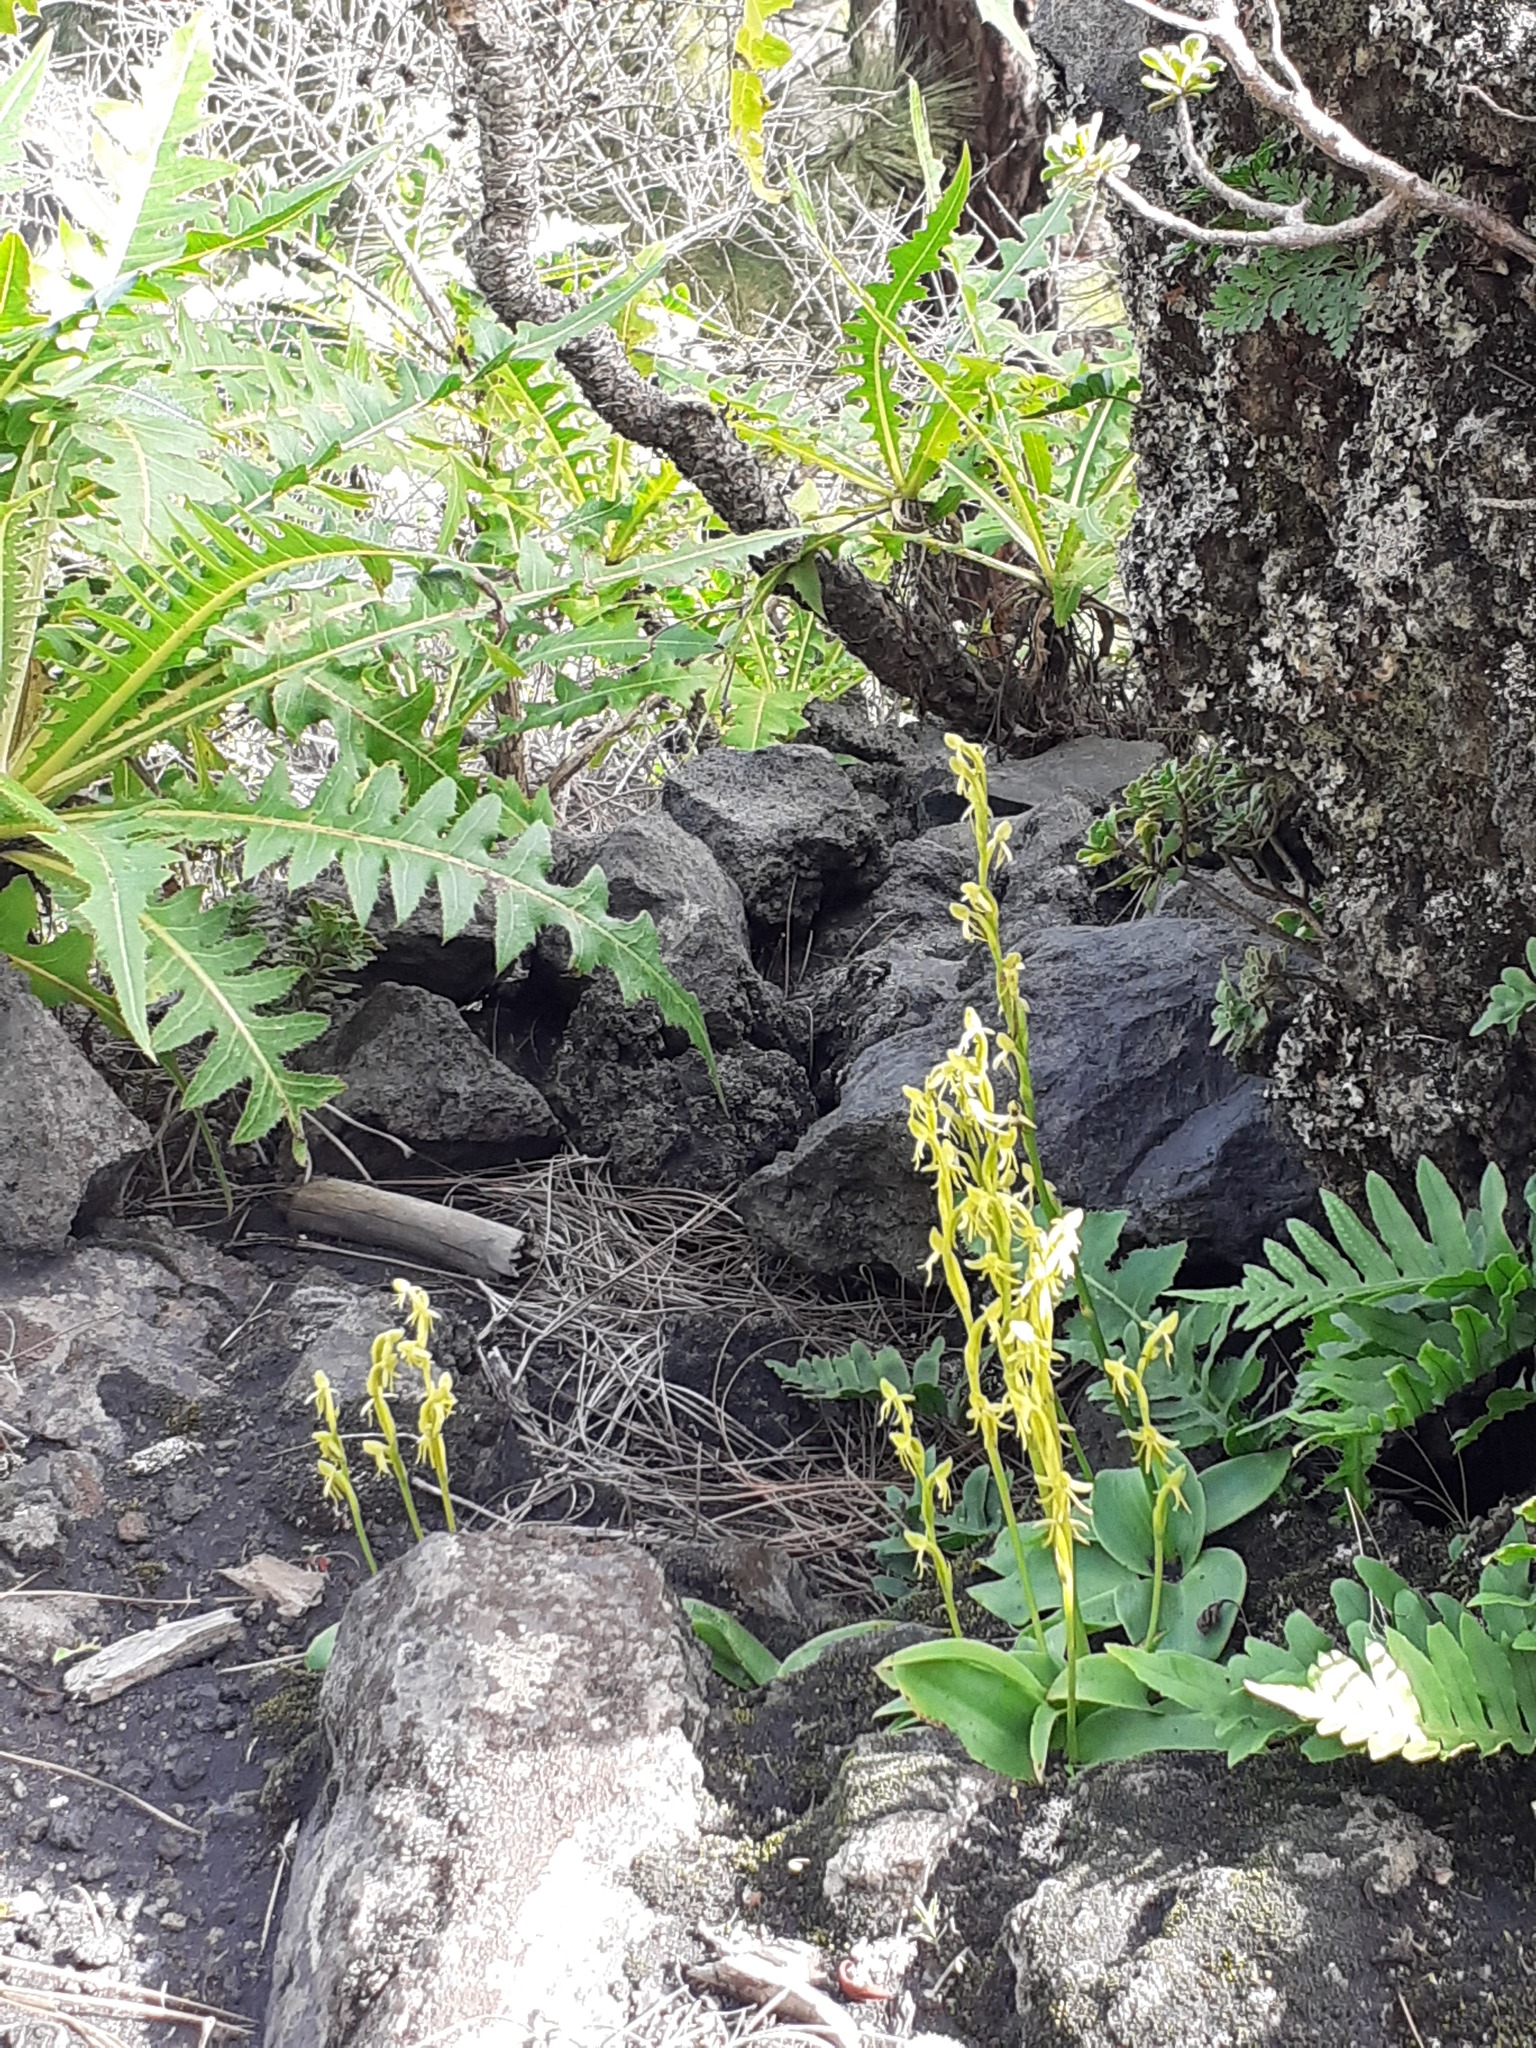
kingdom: Plantae
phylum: Tracheophyta
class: Liliopsida
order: Asparagales
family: Orchidaceae
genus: Habenaria
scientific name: Habenaria tridactylites
